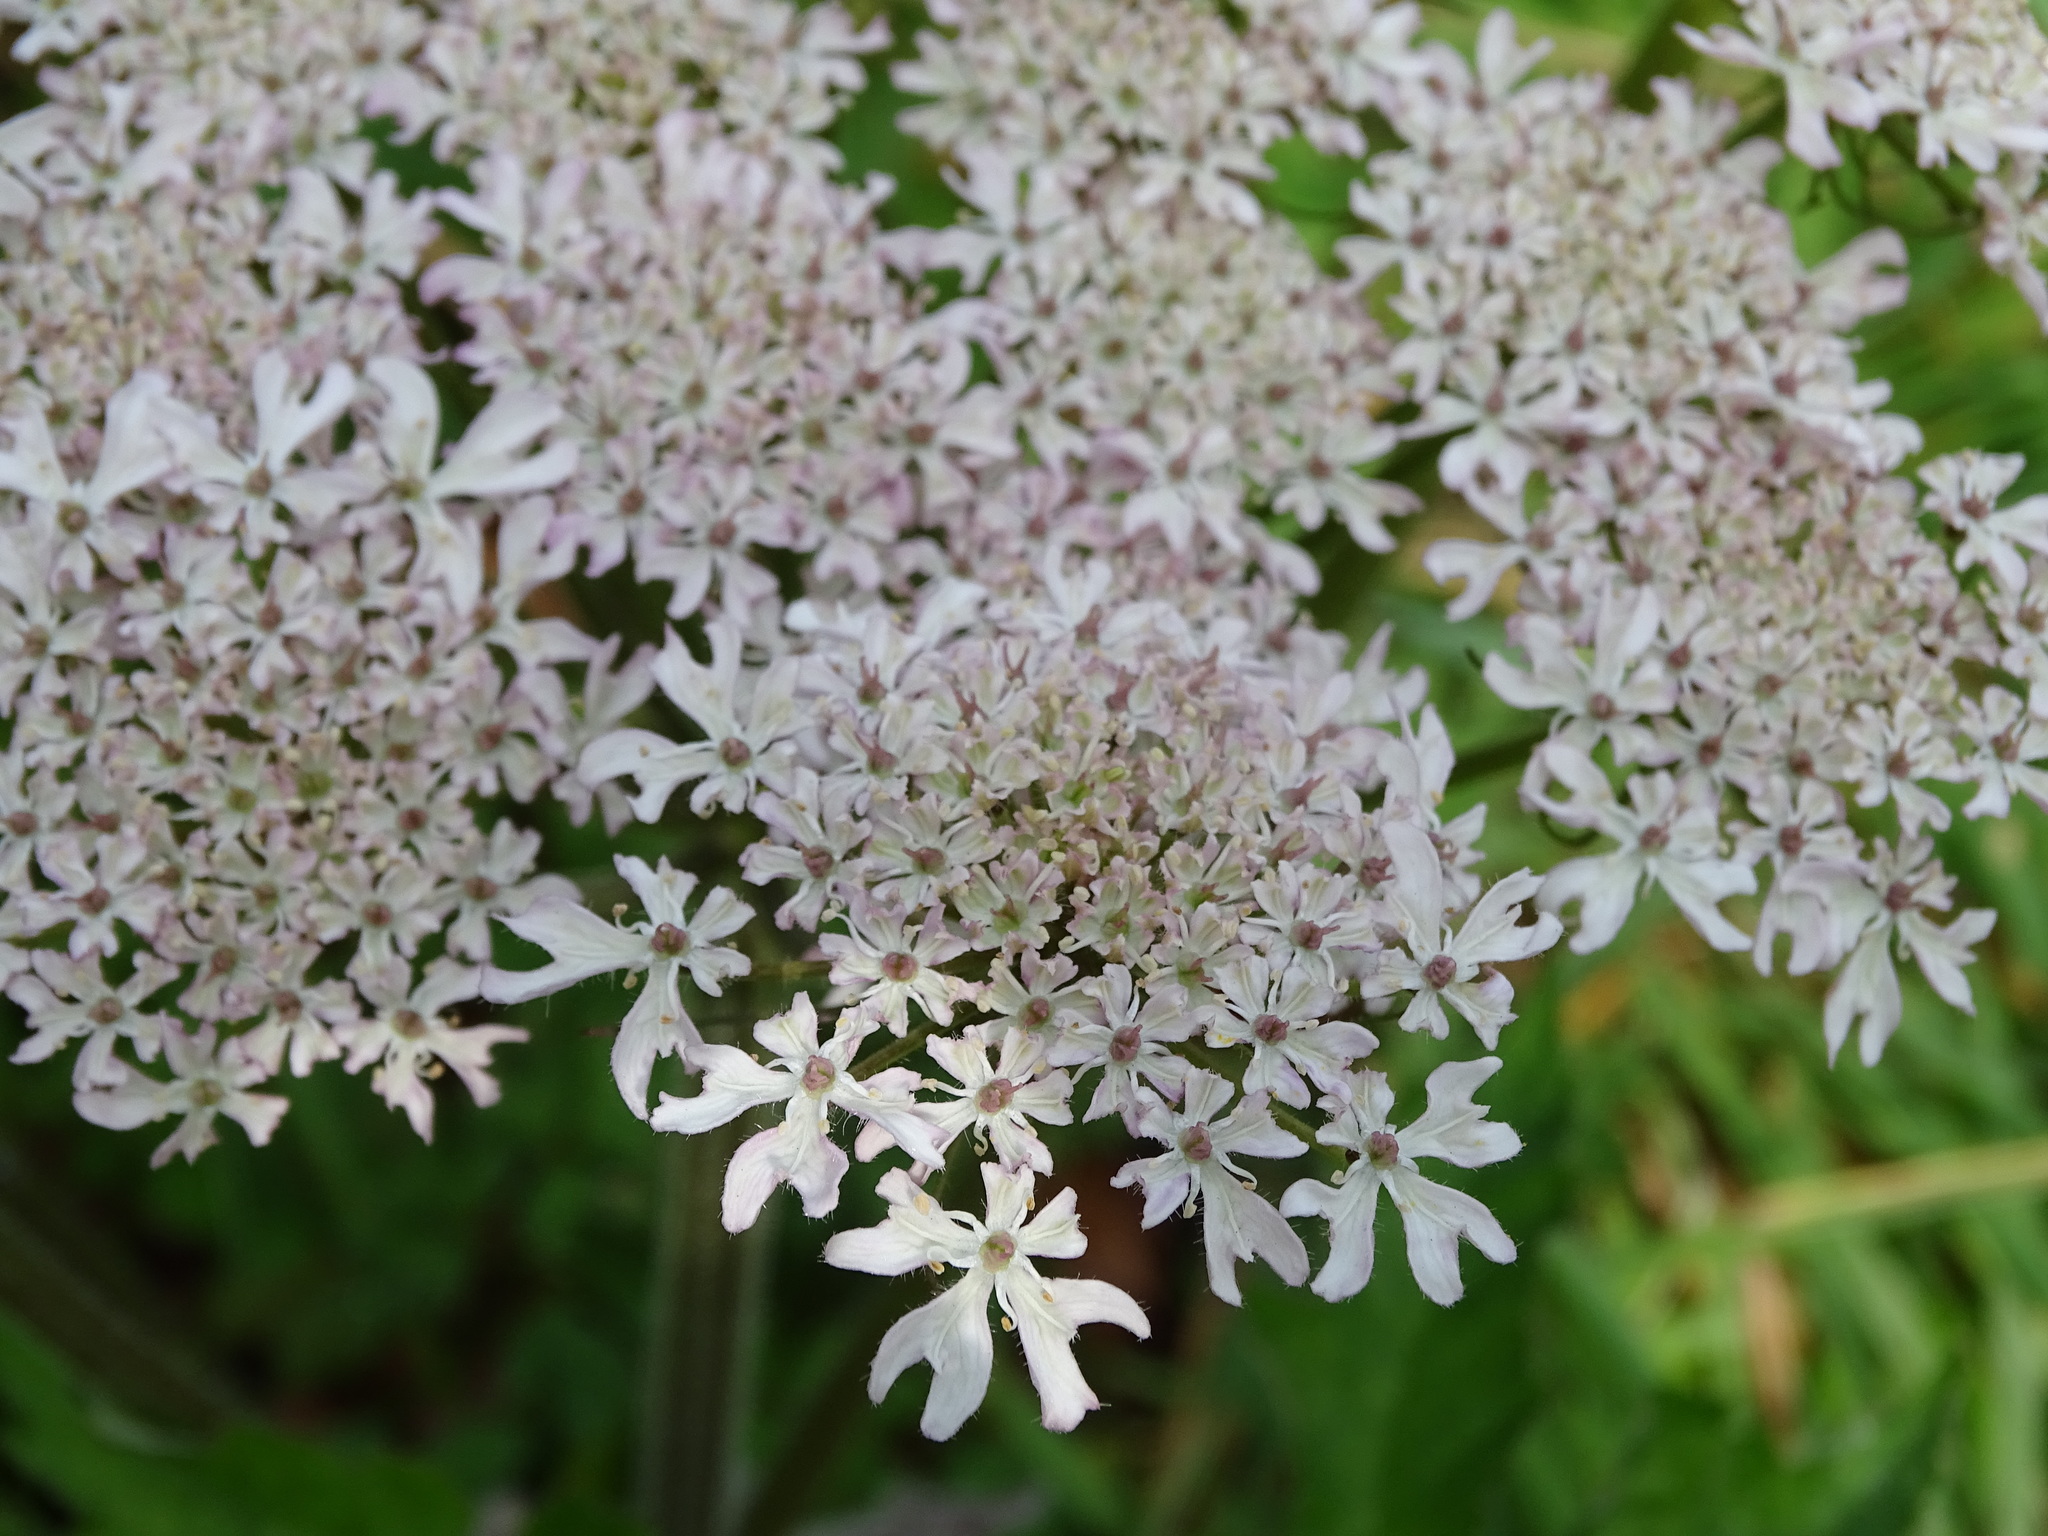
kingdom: Plantae
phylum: Tracheophyta
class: Magnoliopsida
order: Apiales
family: Apiaceae
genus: Heracleum
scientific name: Heracleum sphondylium
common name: Hogweed
